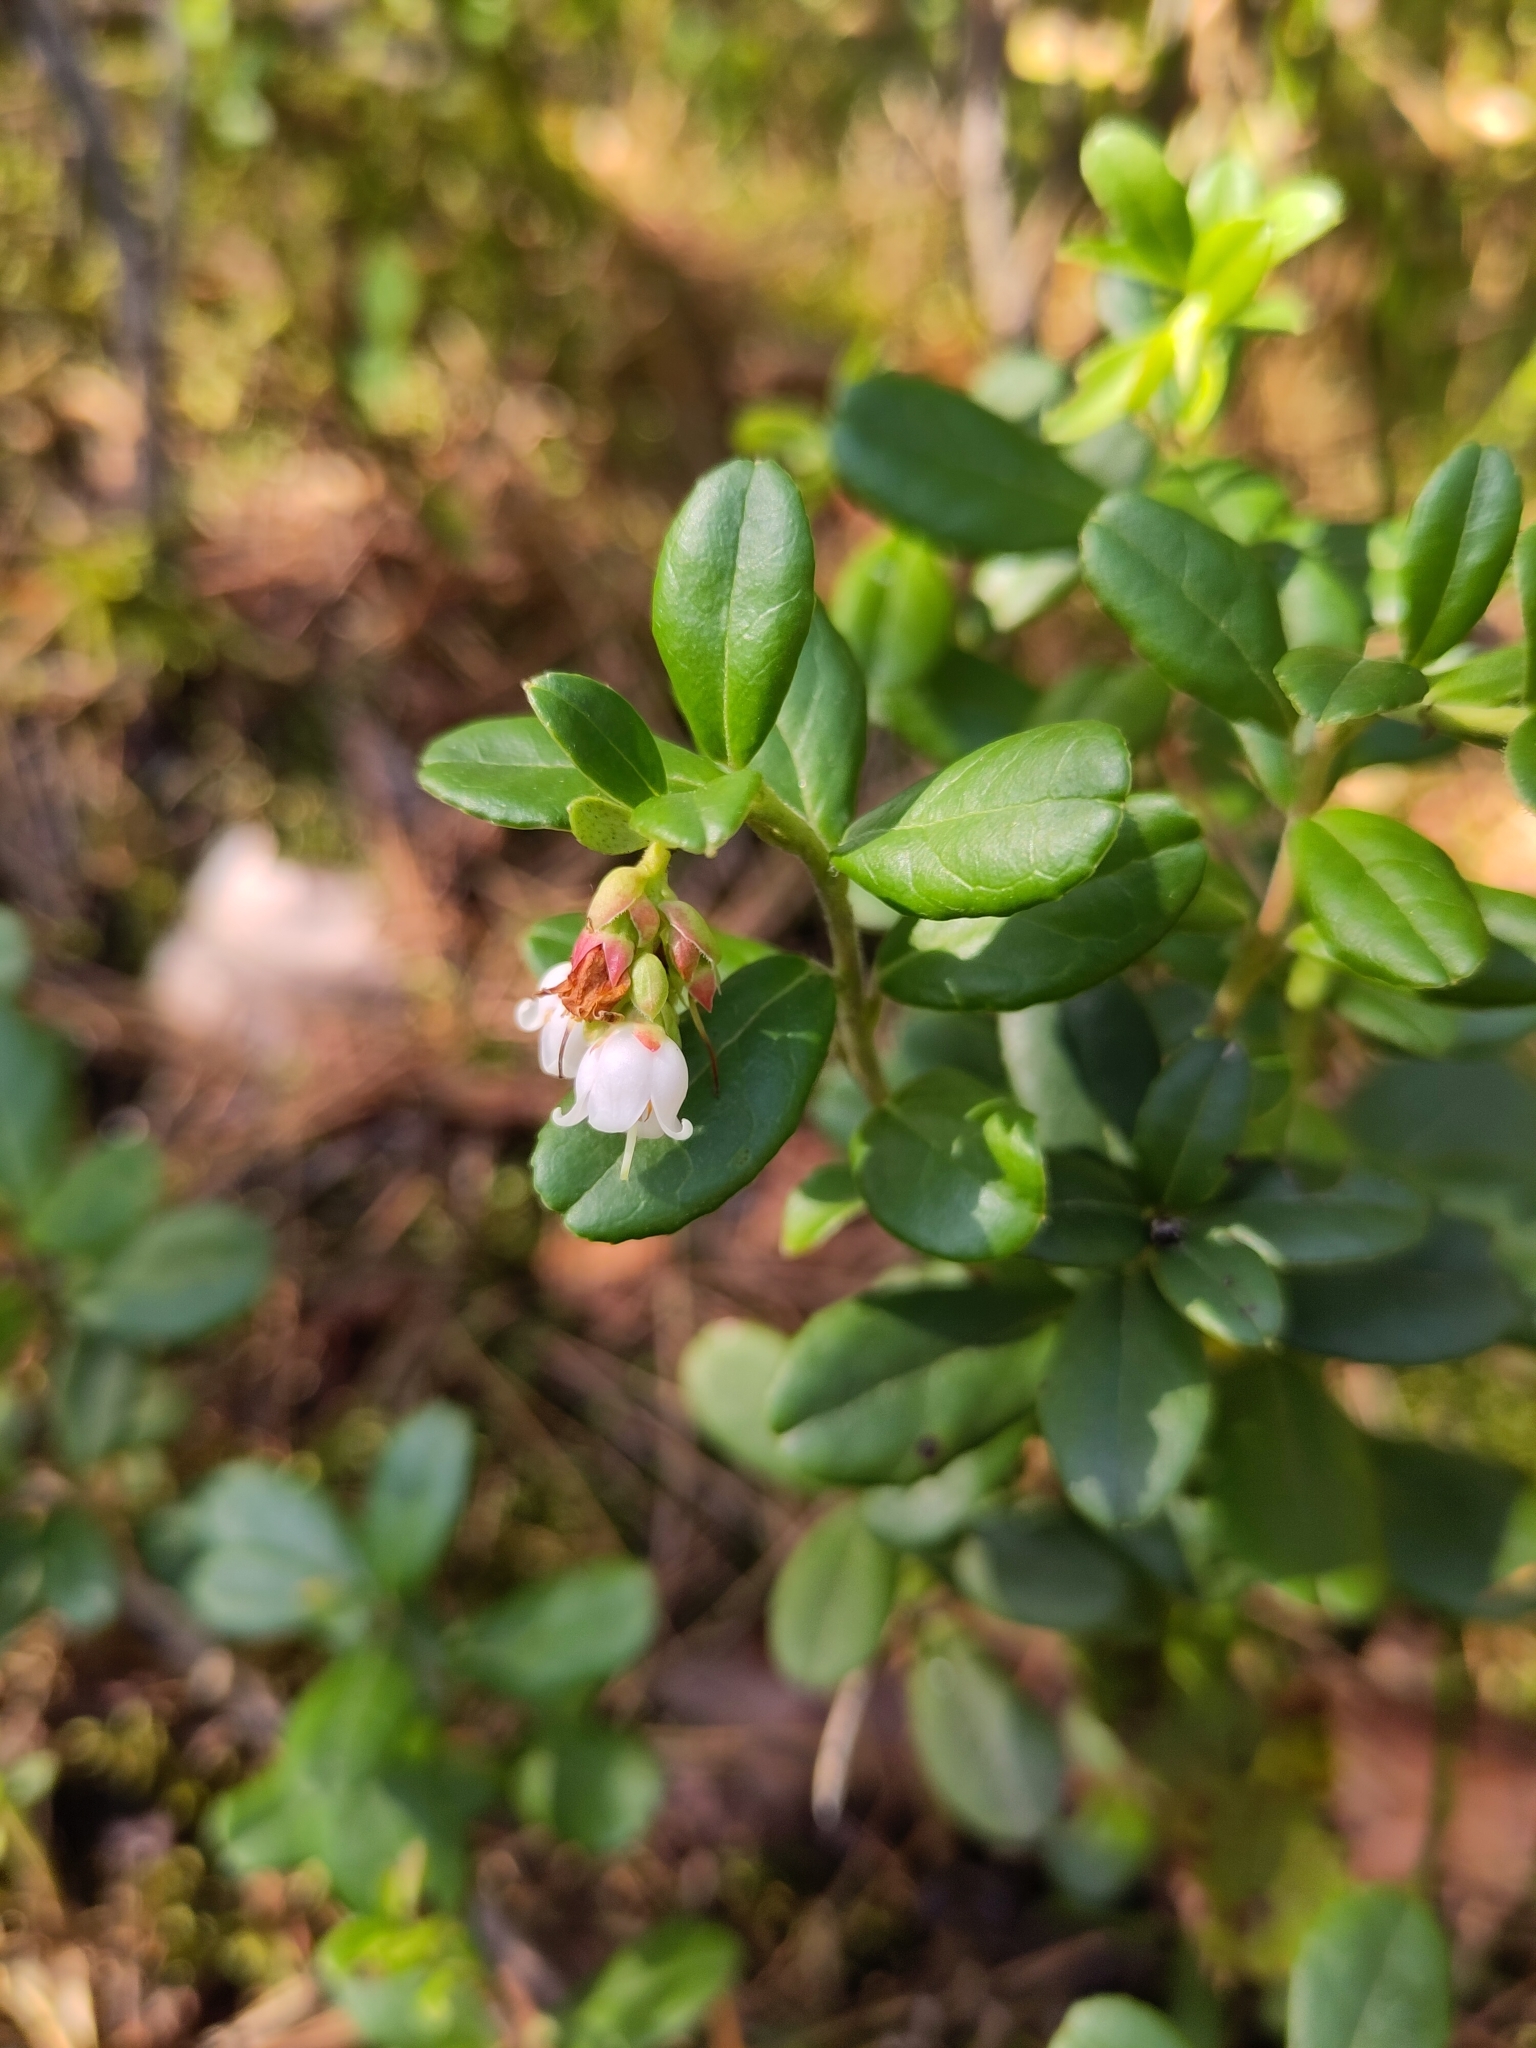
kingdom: Plantae
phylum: Tracheophyta
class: Magnoliopsida
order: Ericales
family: Ericaceae
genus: Vaccinium
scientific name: Vaccinium vitis-idaea
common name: Cowberry
